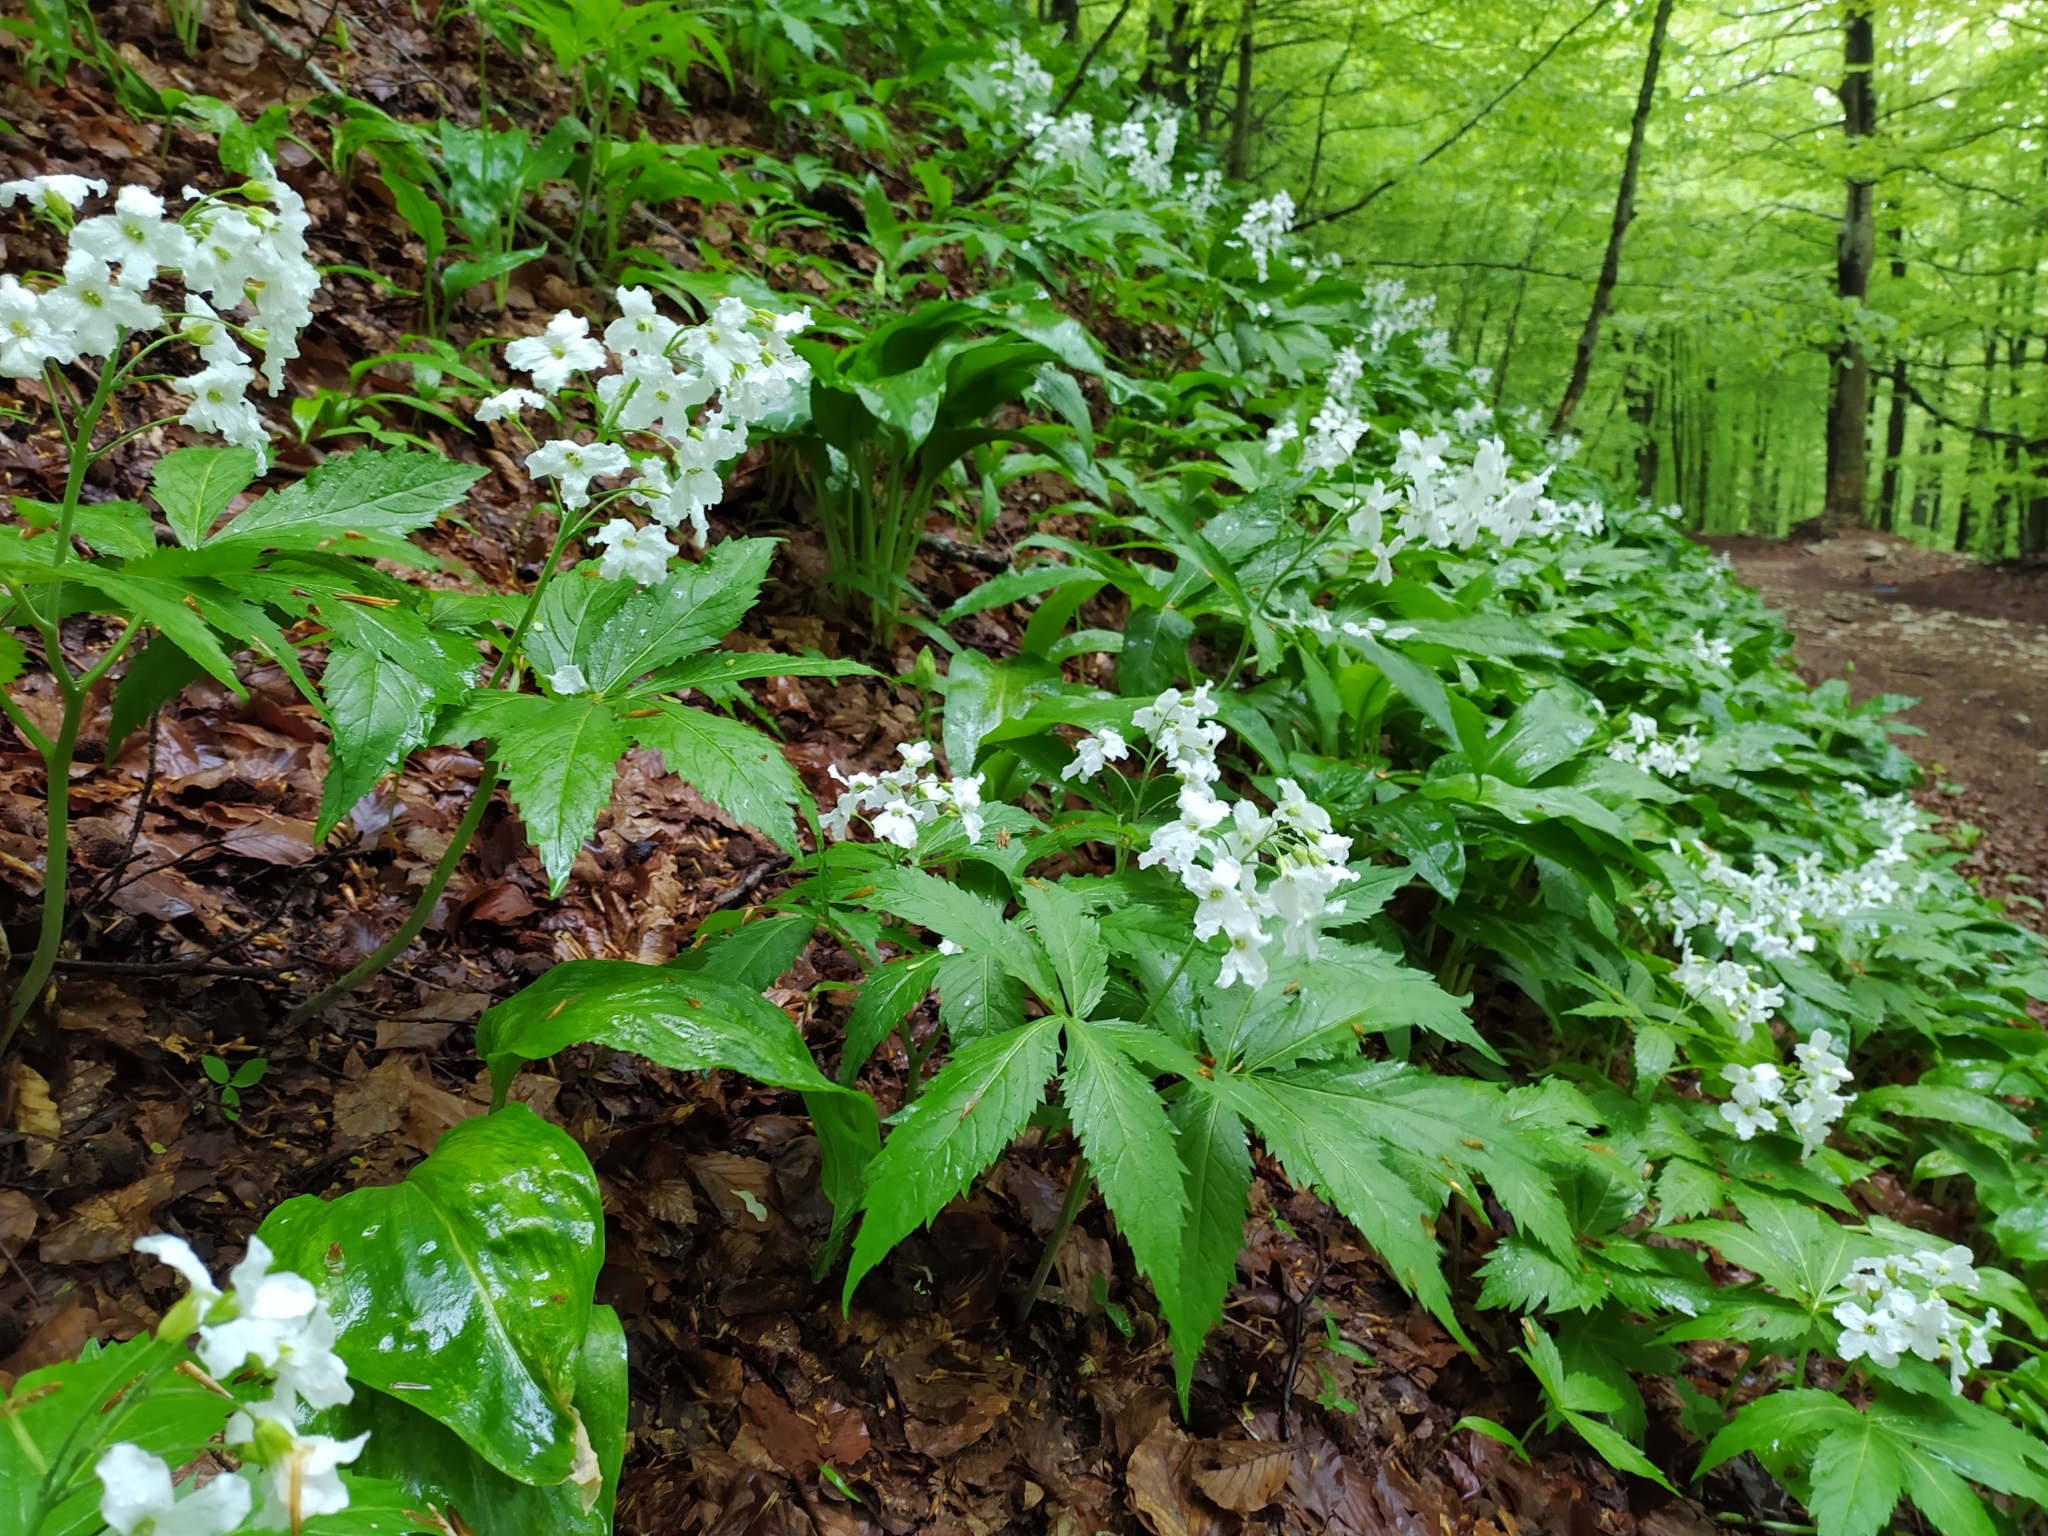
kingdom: Plantae
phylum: Tracheophyta
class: Magnoliopsida
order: Brassicales
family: Brassicaceae
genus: Cardamine
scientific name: Cardamine heptaphylla
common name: Pinnate coralroot
